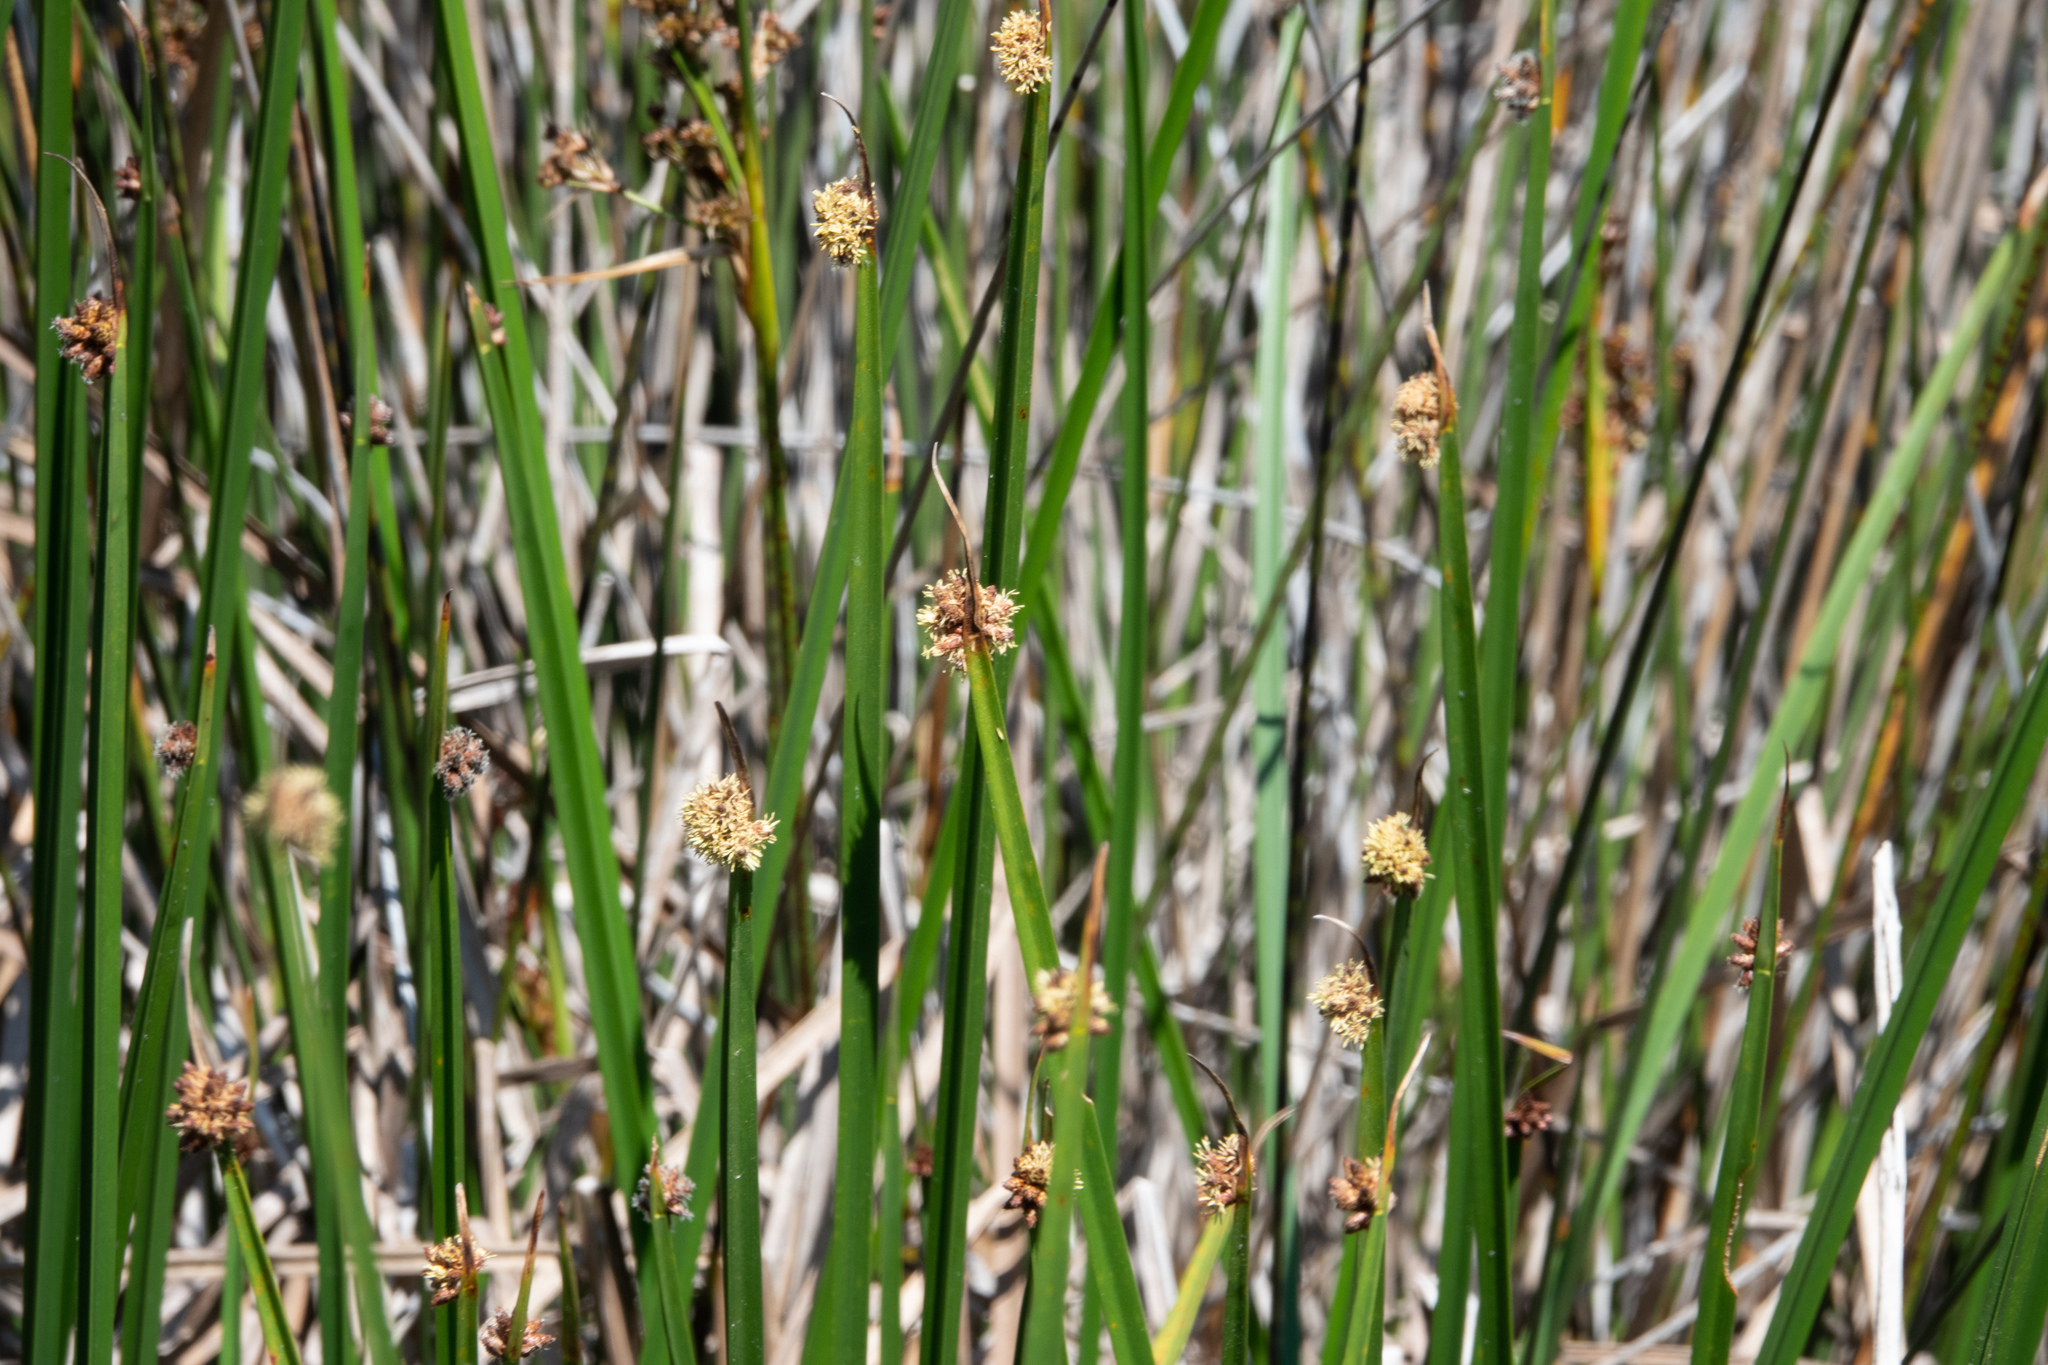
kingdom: Plantae
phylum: Tracheophyta
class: Liliopsida
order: Poales
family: Cyperaceae
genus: Schoenoplectus
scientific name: Schoenoplectus americanus
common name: American three-square bulrush
